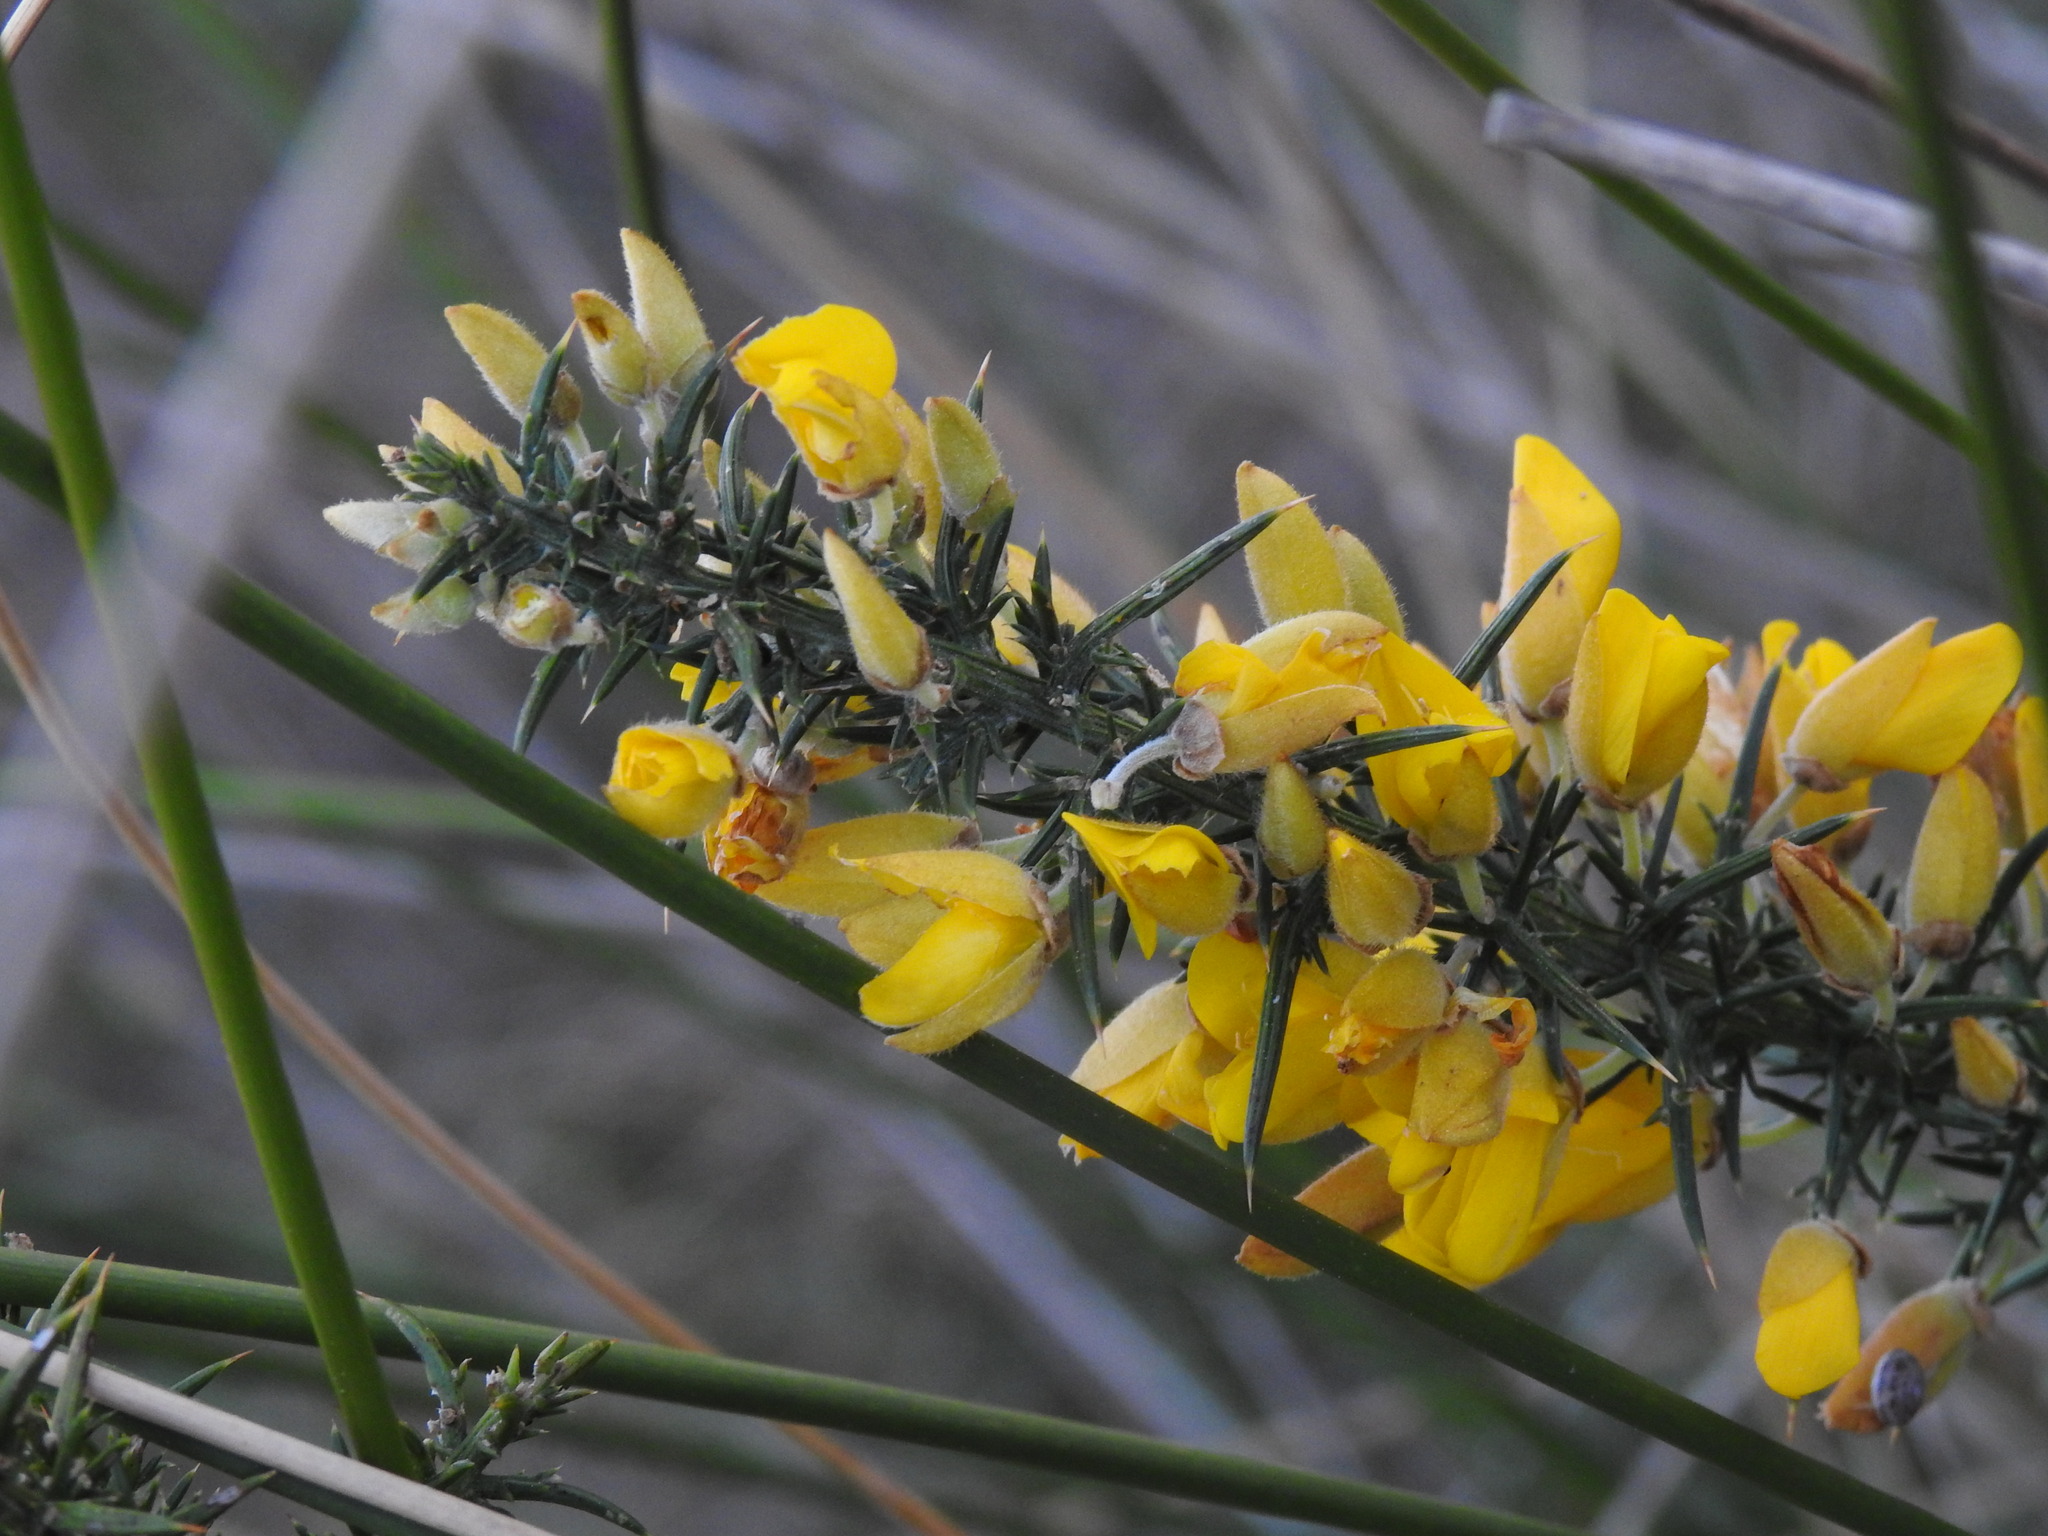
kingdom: Plantae
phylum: Tracheophyta
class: Magnoliopsida
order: Fabales
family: Fabaceae
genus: Ulex
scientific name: Ulex europaeus
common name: Common gorse
